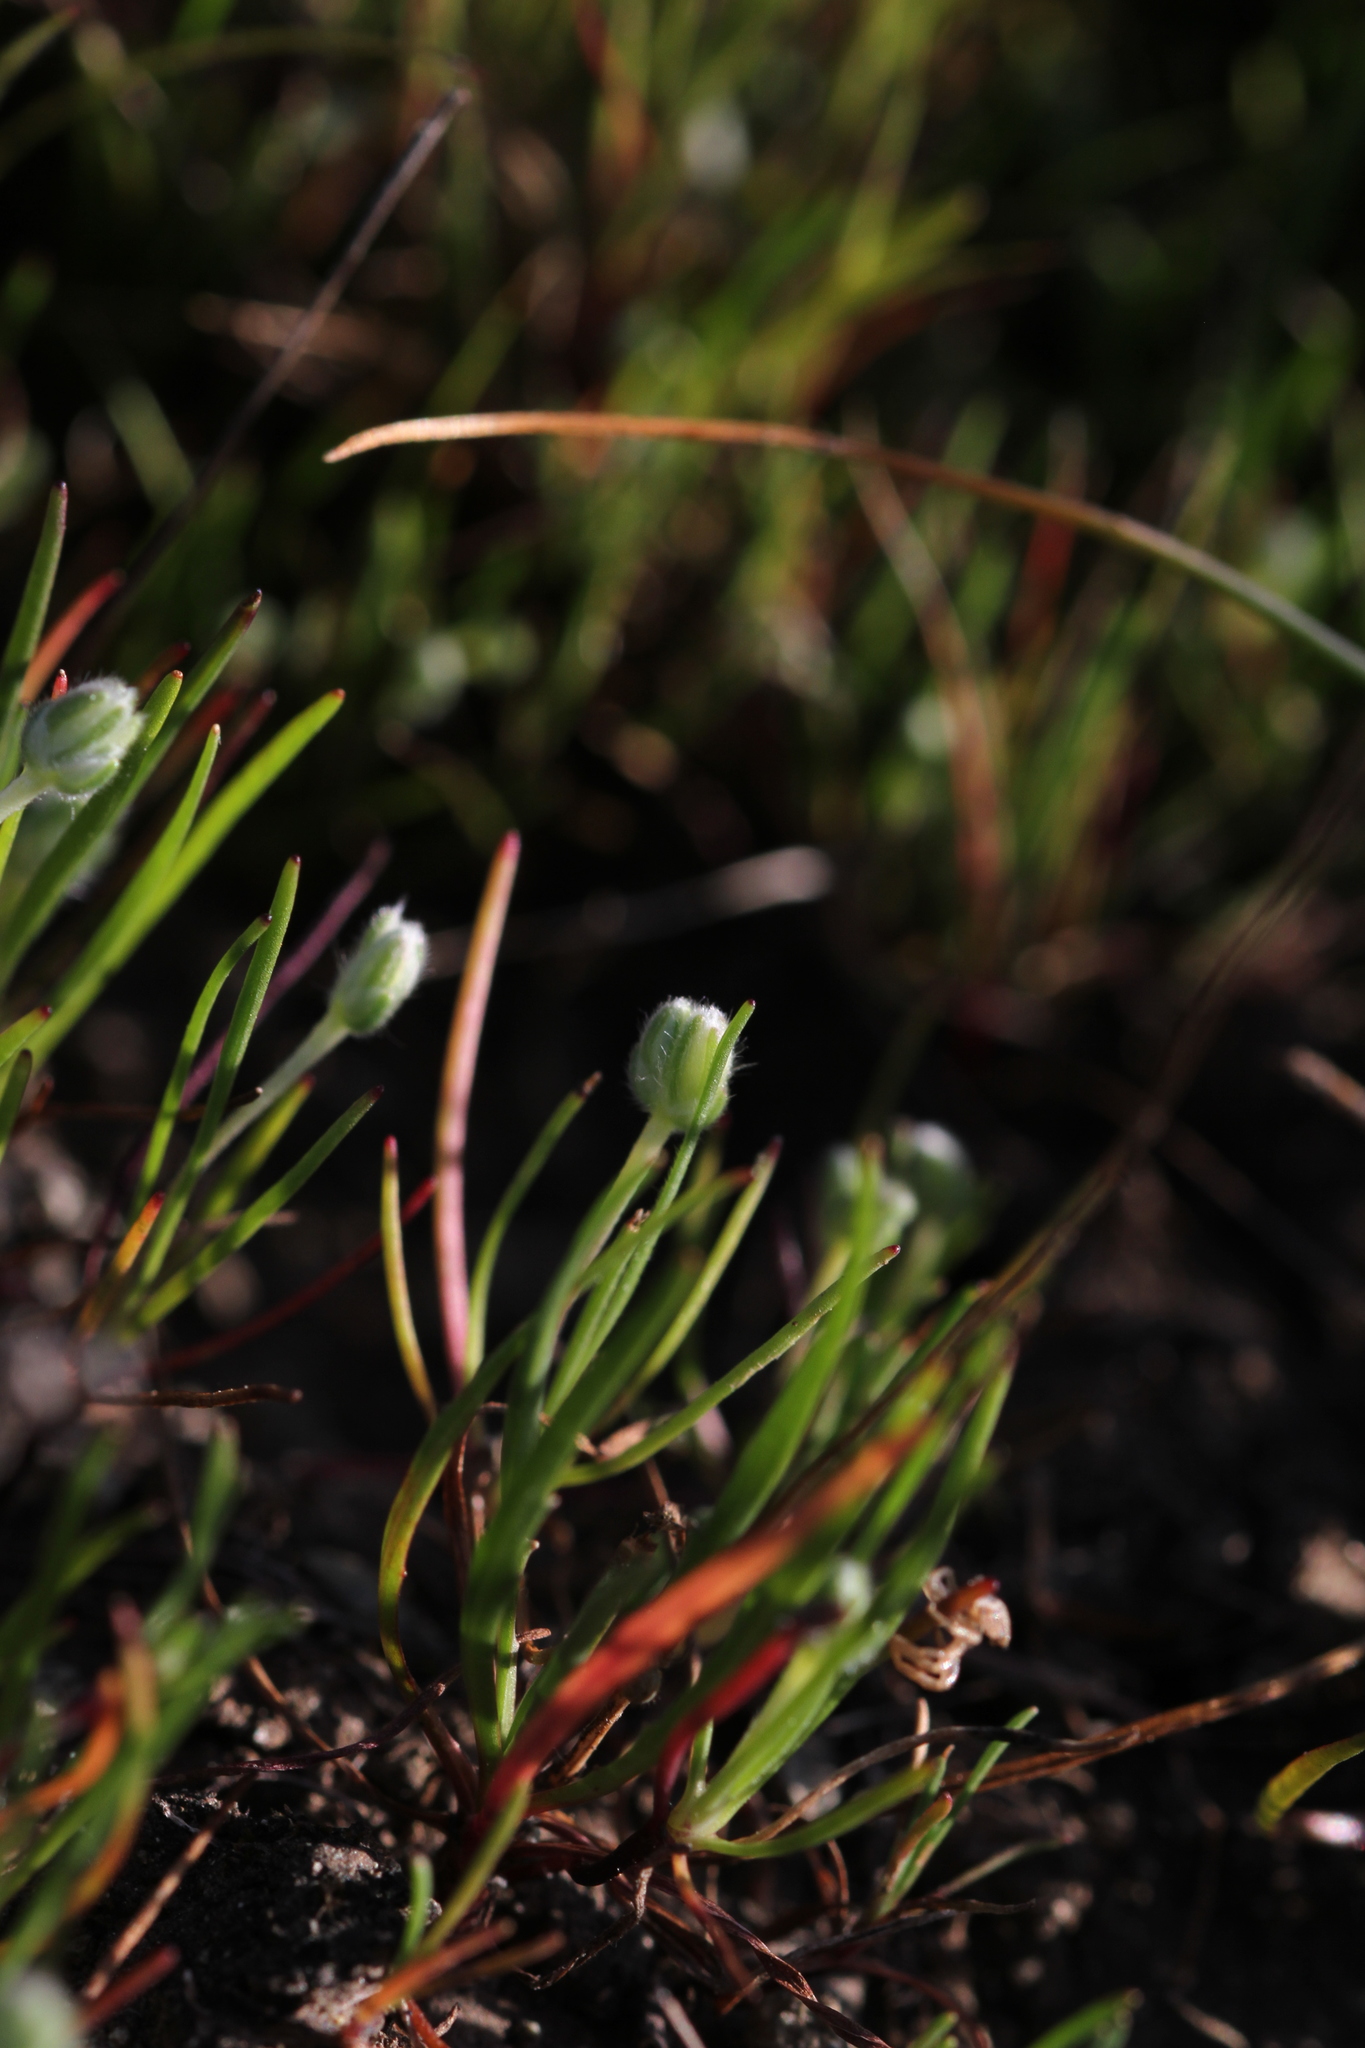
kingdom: Plantae
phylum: Tracheophyta
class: Magnoliopsida
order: Lamiales
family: Plantaginaceae
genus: Plantago
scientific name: Plantago erecta
